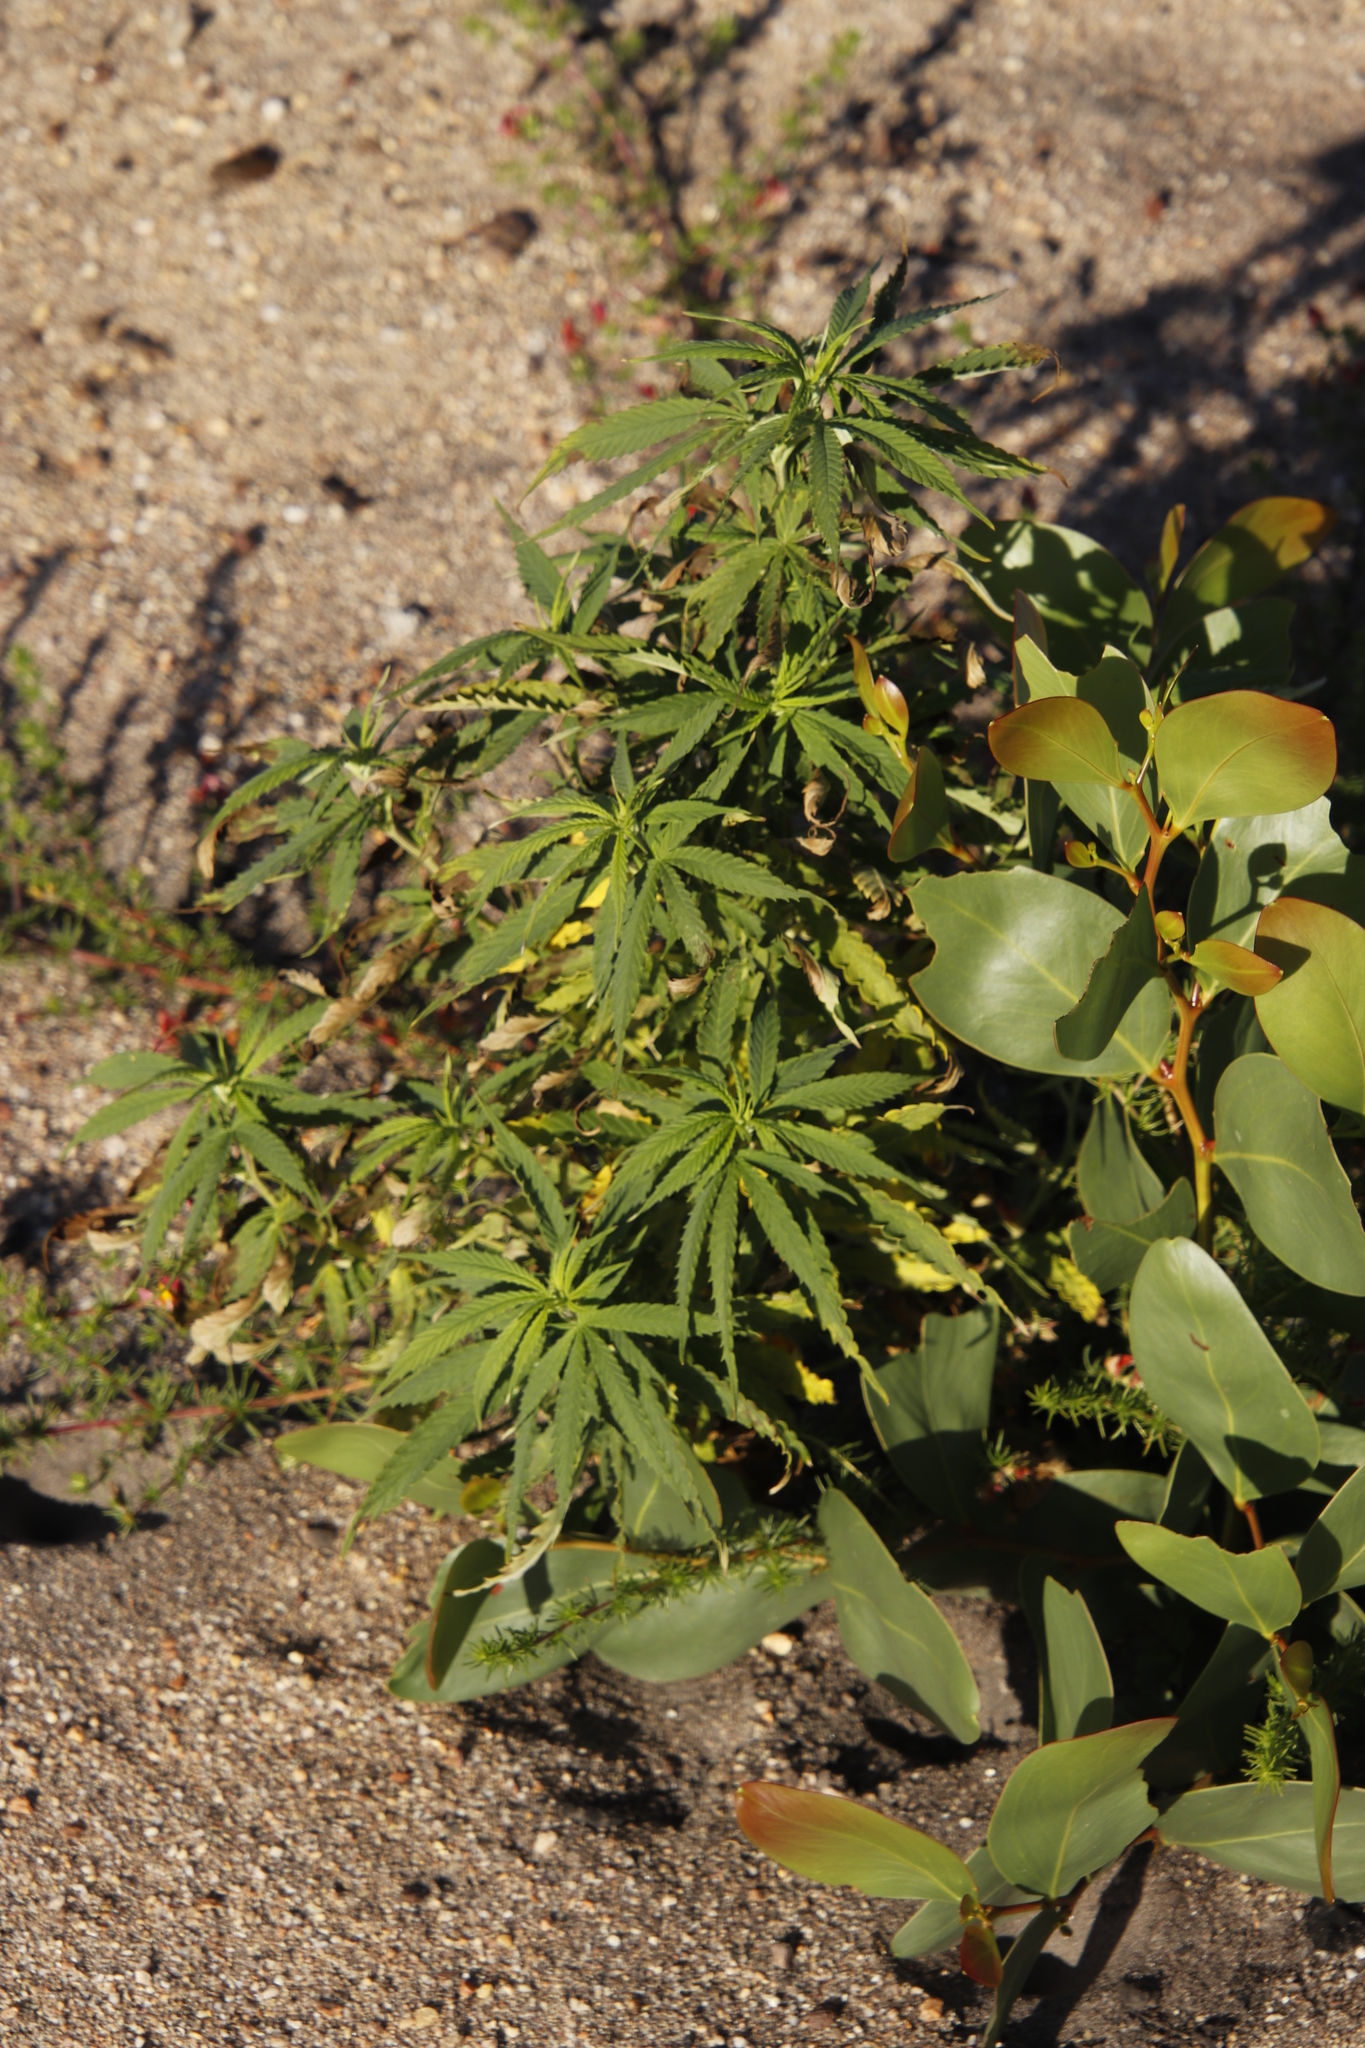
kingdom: Plantae
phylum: Tracheophyta
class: Magnoliopsida
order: Rosales
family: Cannabaceae
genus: Cannabis
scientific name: Cannabis sativa
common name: Hemp
